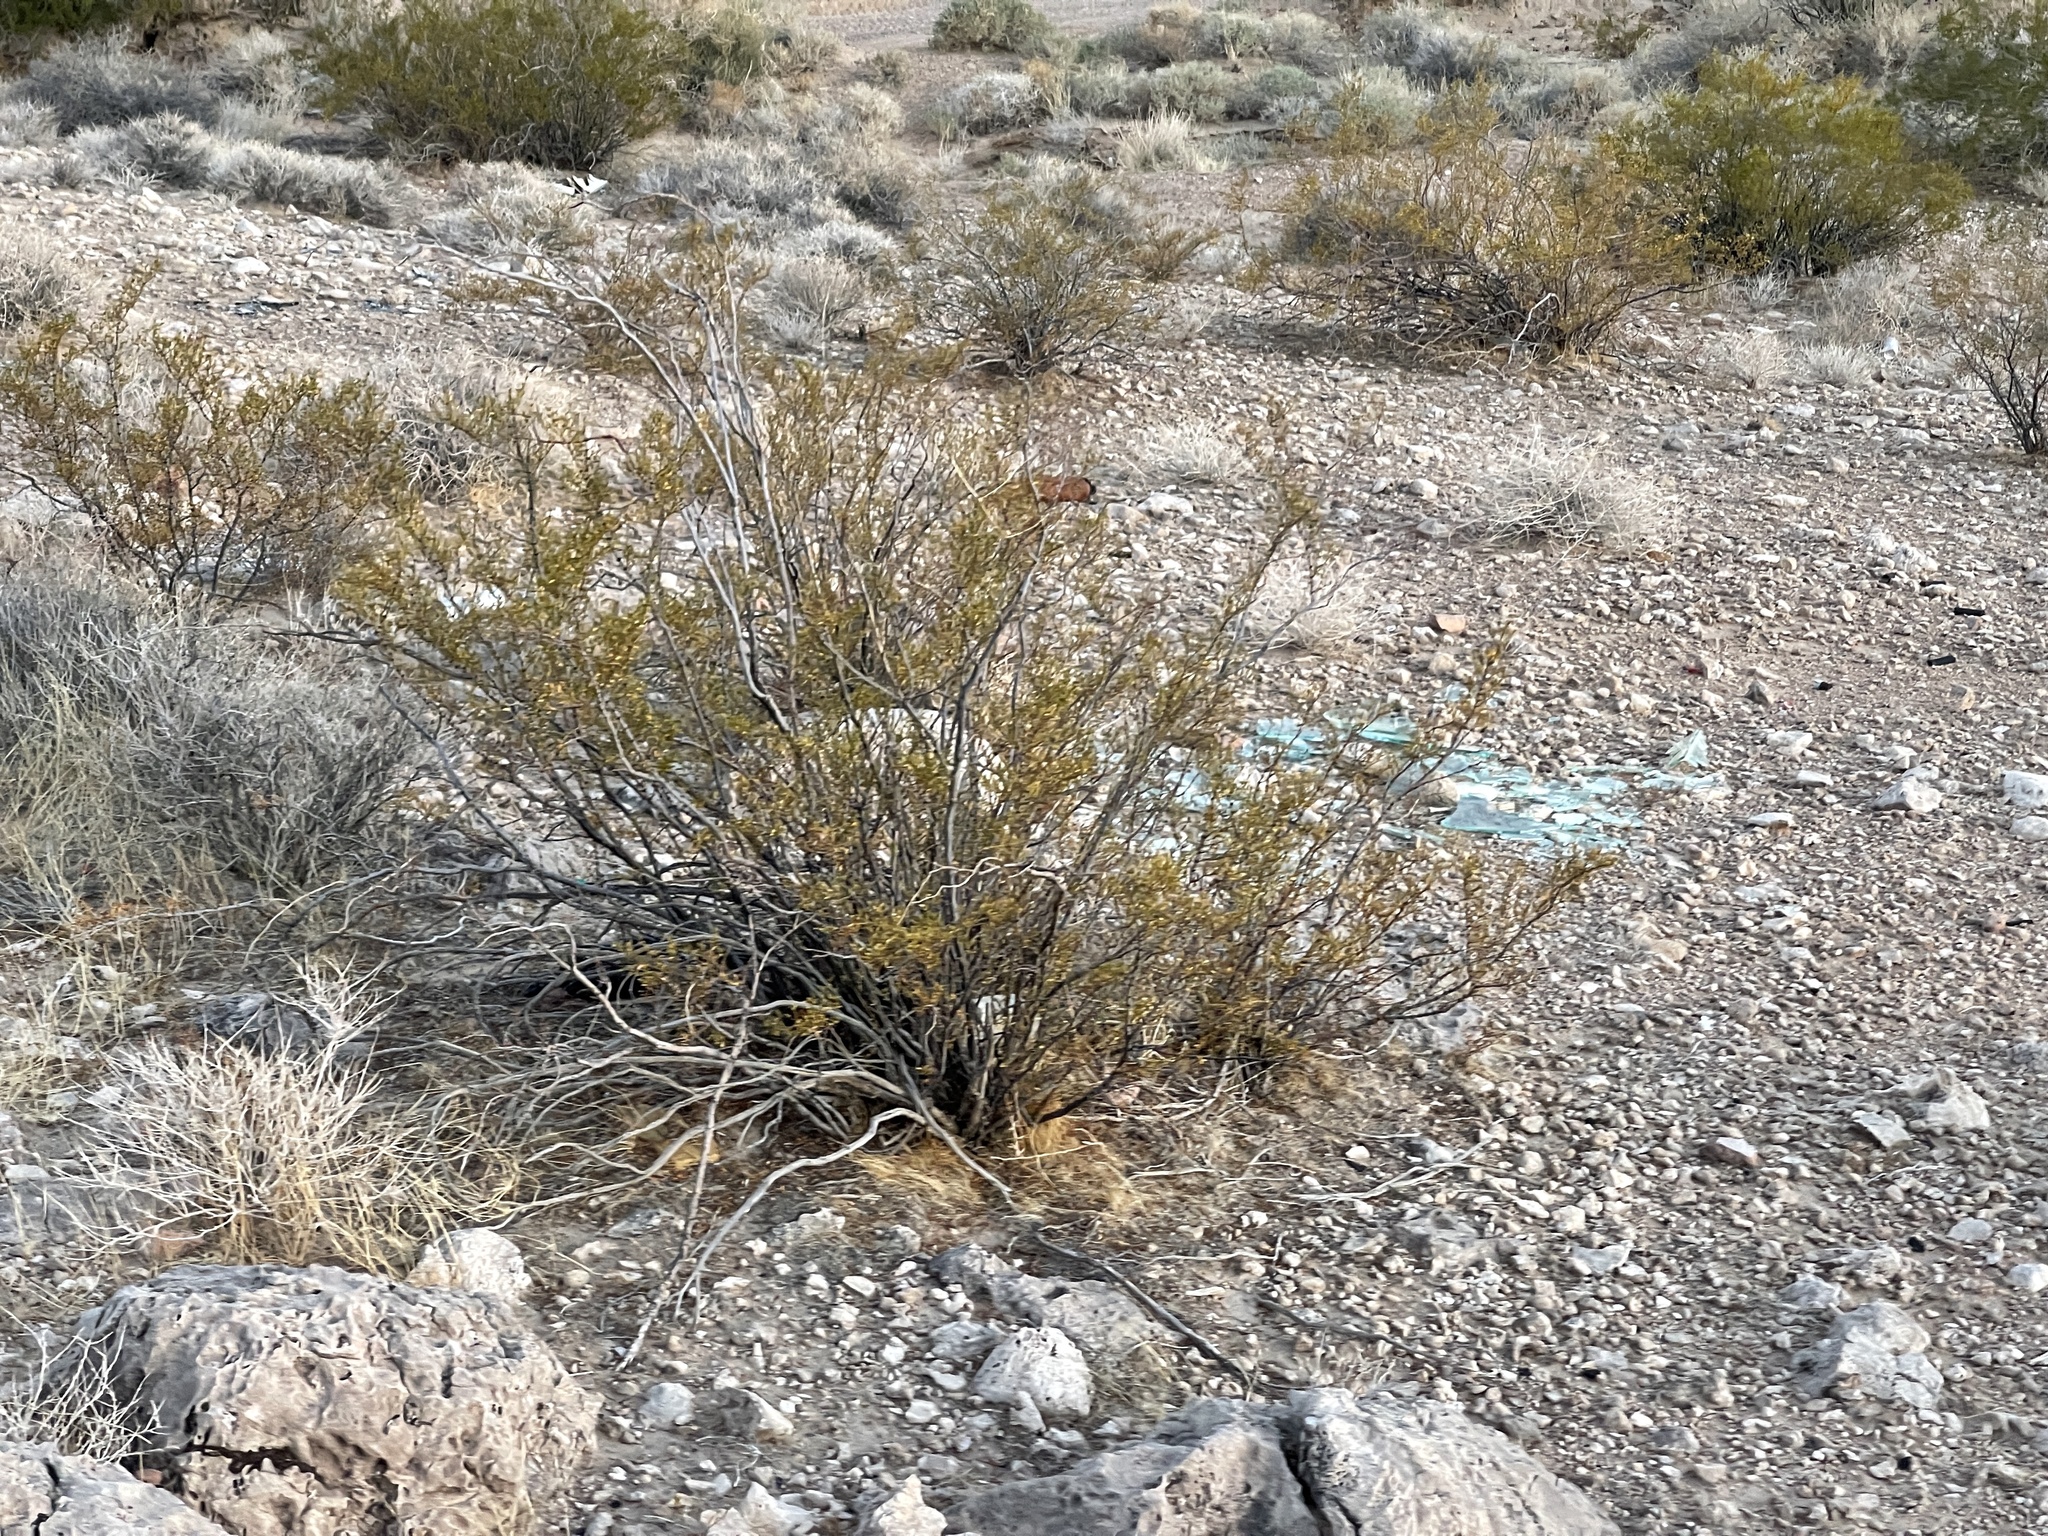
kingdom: Plantae
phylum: Tracheophyta
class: Magnoliopsida
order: Zygophyllales
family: Zygophyllaceae
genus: Larrea
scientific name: Larrea tridentata
